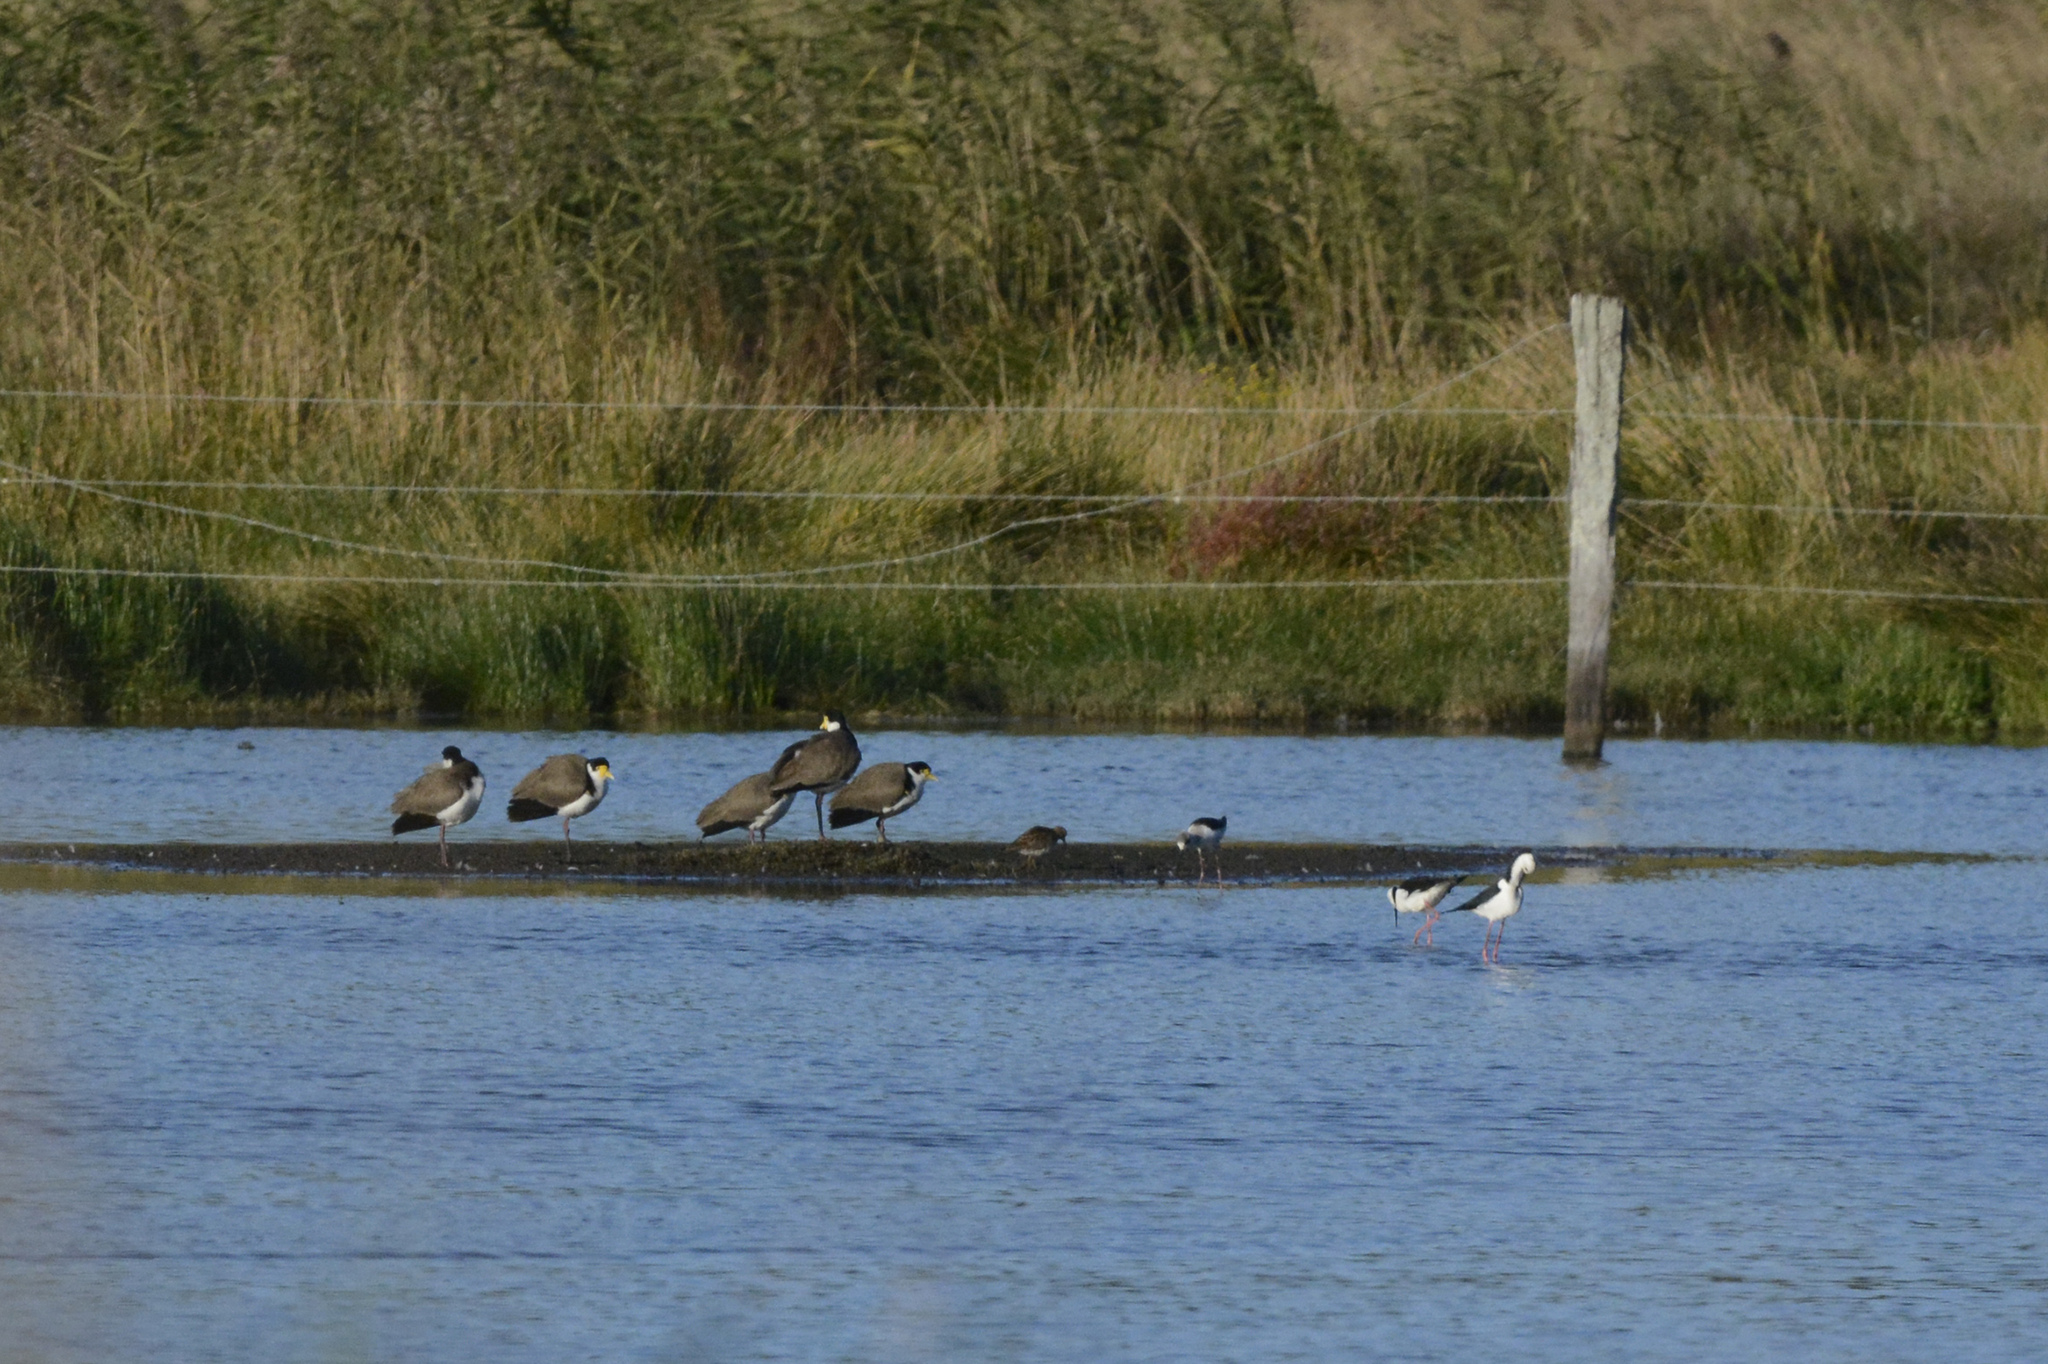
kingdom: Animalia
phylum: Chordata
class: Aves
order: Charadriiformes
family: Charadriidae
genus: Vanellus
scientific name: Vanellus miles
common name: Masked lapwing
